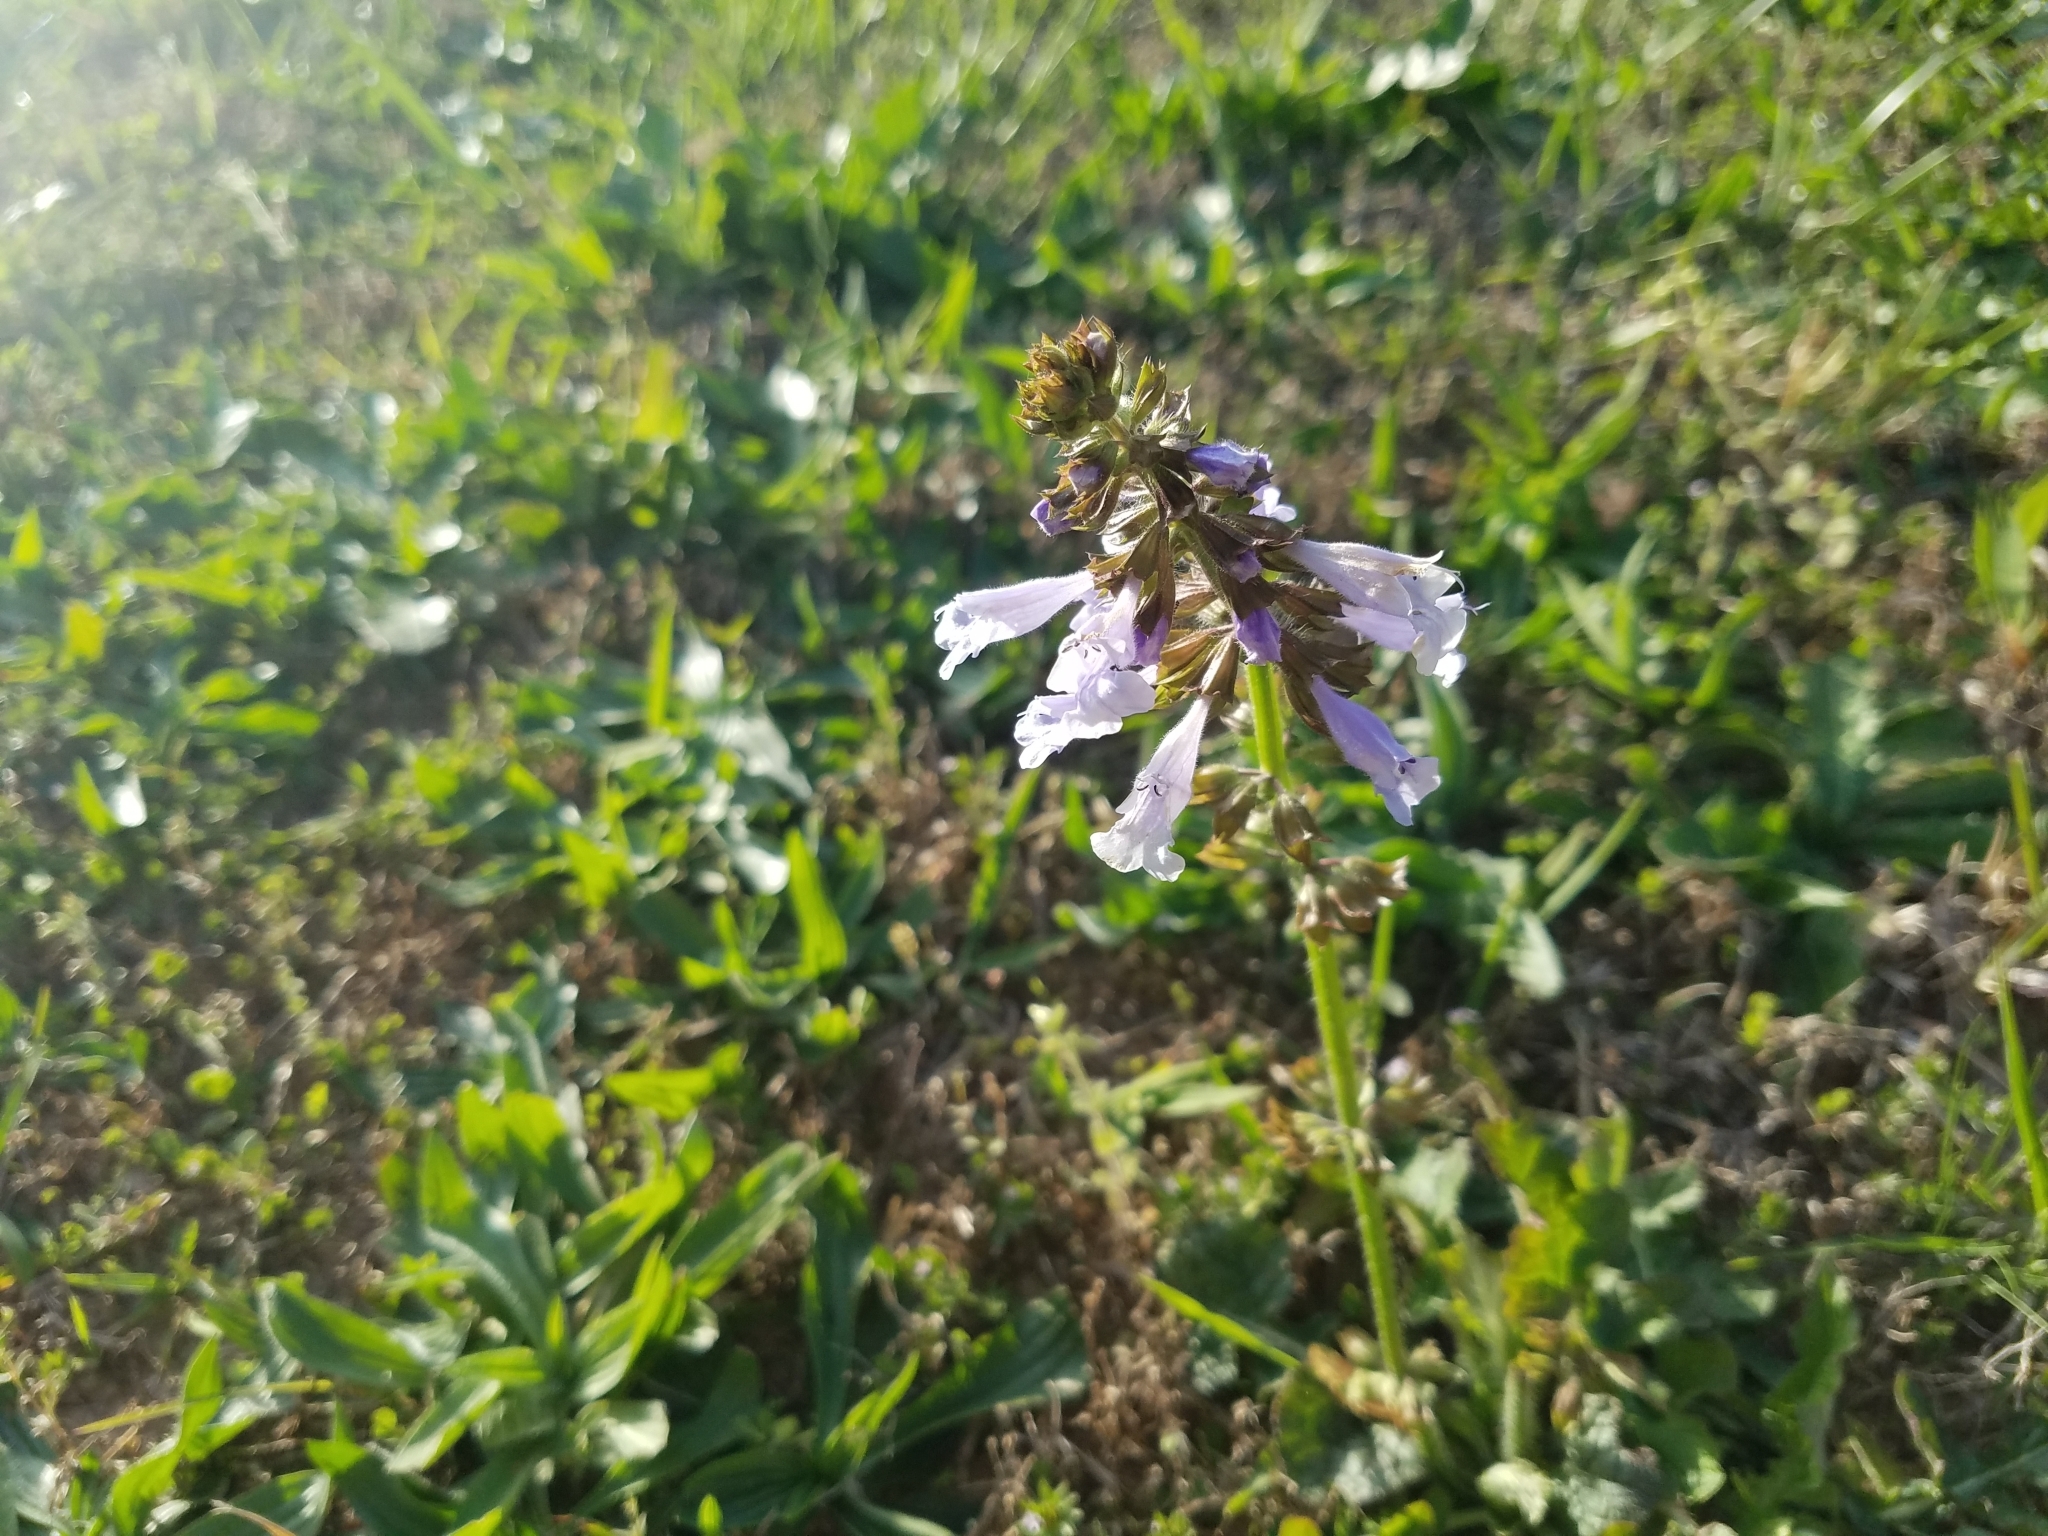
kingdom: Plantae
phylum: Tracheophyta
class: Magnoliopsida
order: Lamiales
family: Lamiaceae
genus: Salvia
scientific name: Salvia lyrata
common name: Cancerweed
